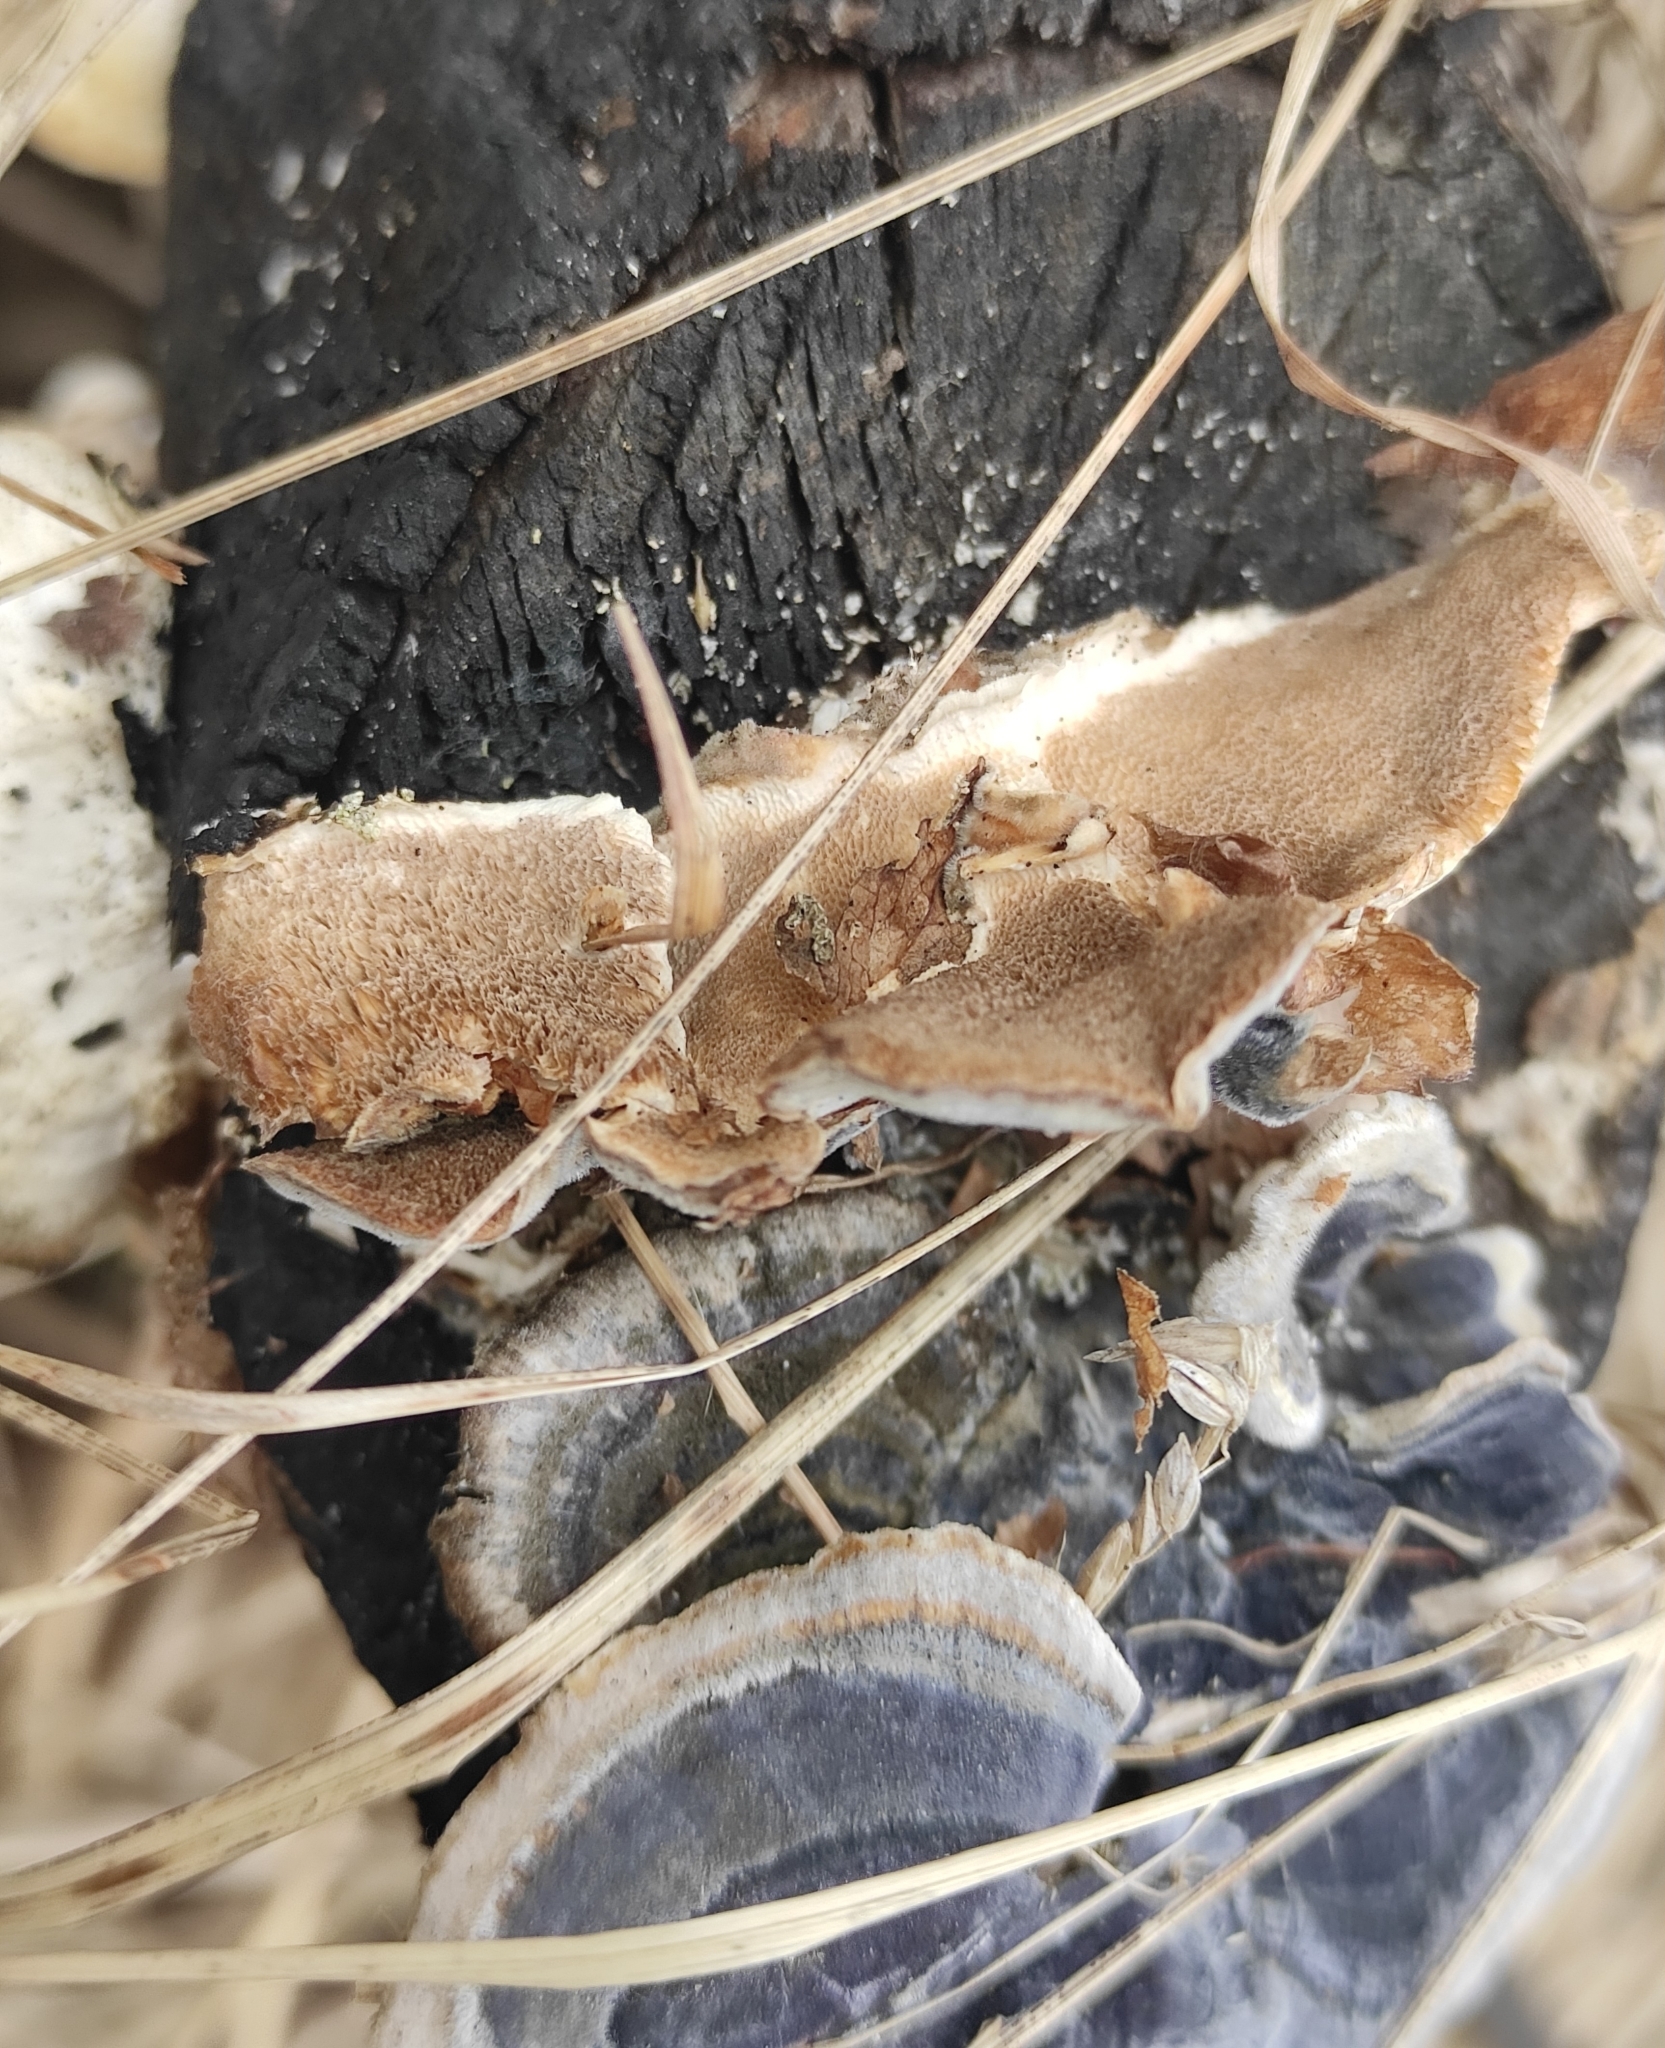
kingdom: Fungi
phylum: Basidiomycota
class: Agaricomycetes
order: Polyporales
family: Polyporaceae
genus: Trametes
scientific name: Trametes versicolor
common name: Turkeytail
